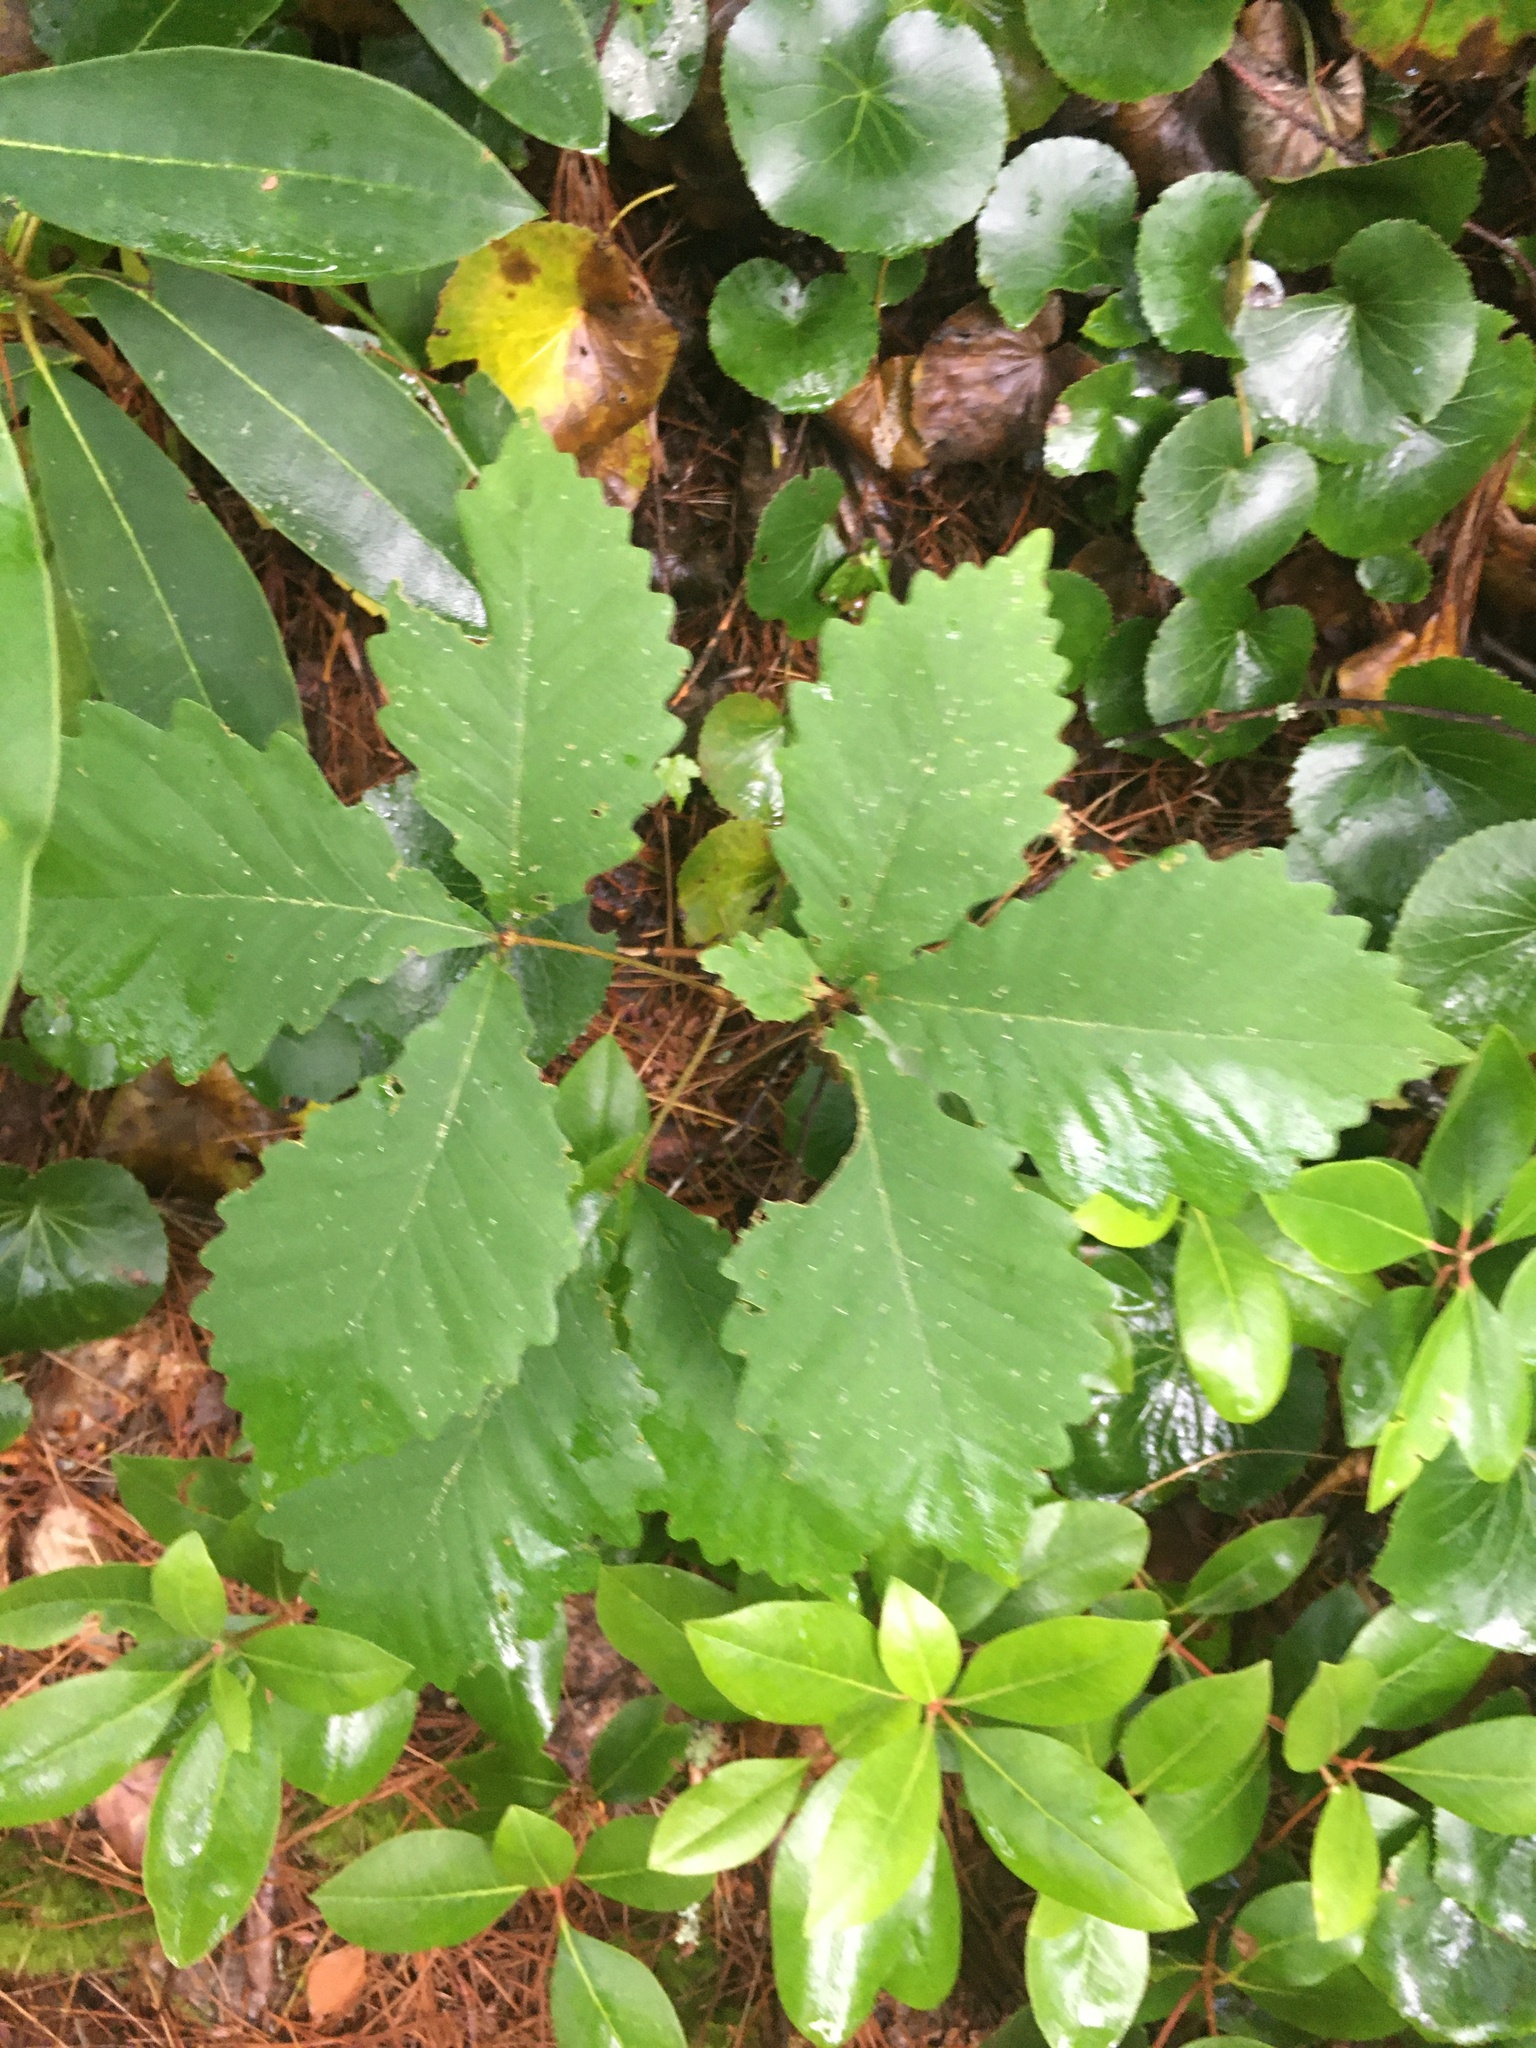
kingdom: Plantae
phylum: Tracheophyta
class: Magnoliopsida
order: Fagales
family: Fagaceae
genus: Quercus
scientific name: Quercus montana
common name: Chestnut oak
